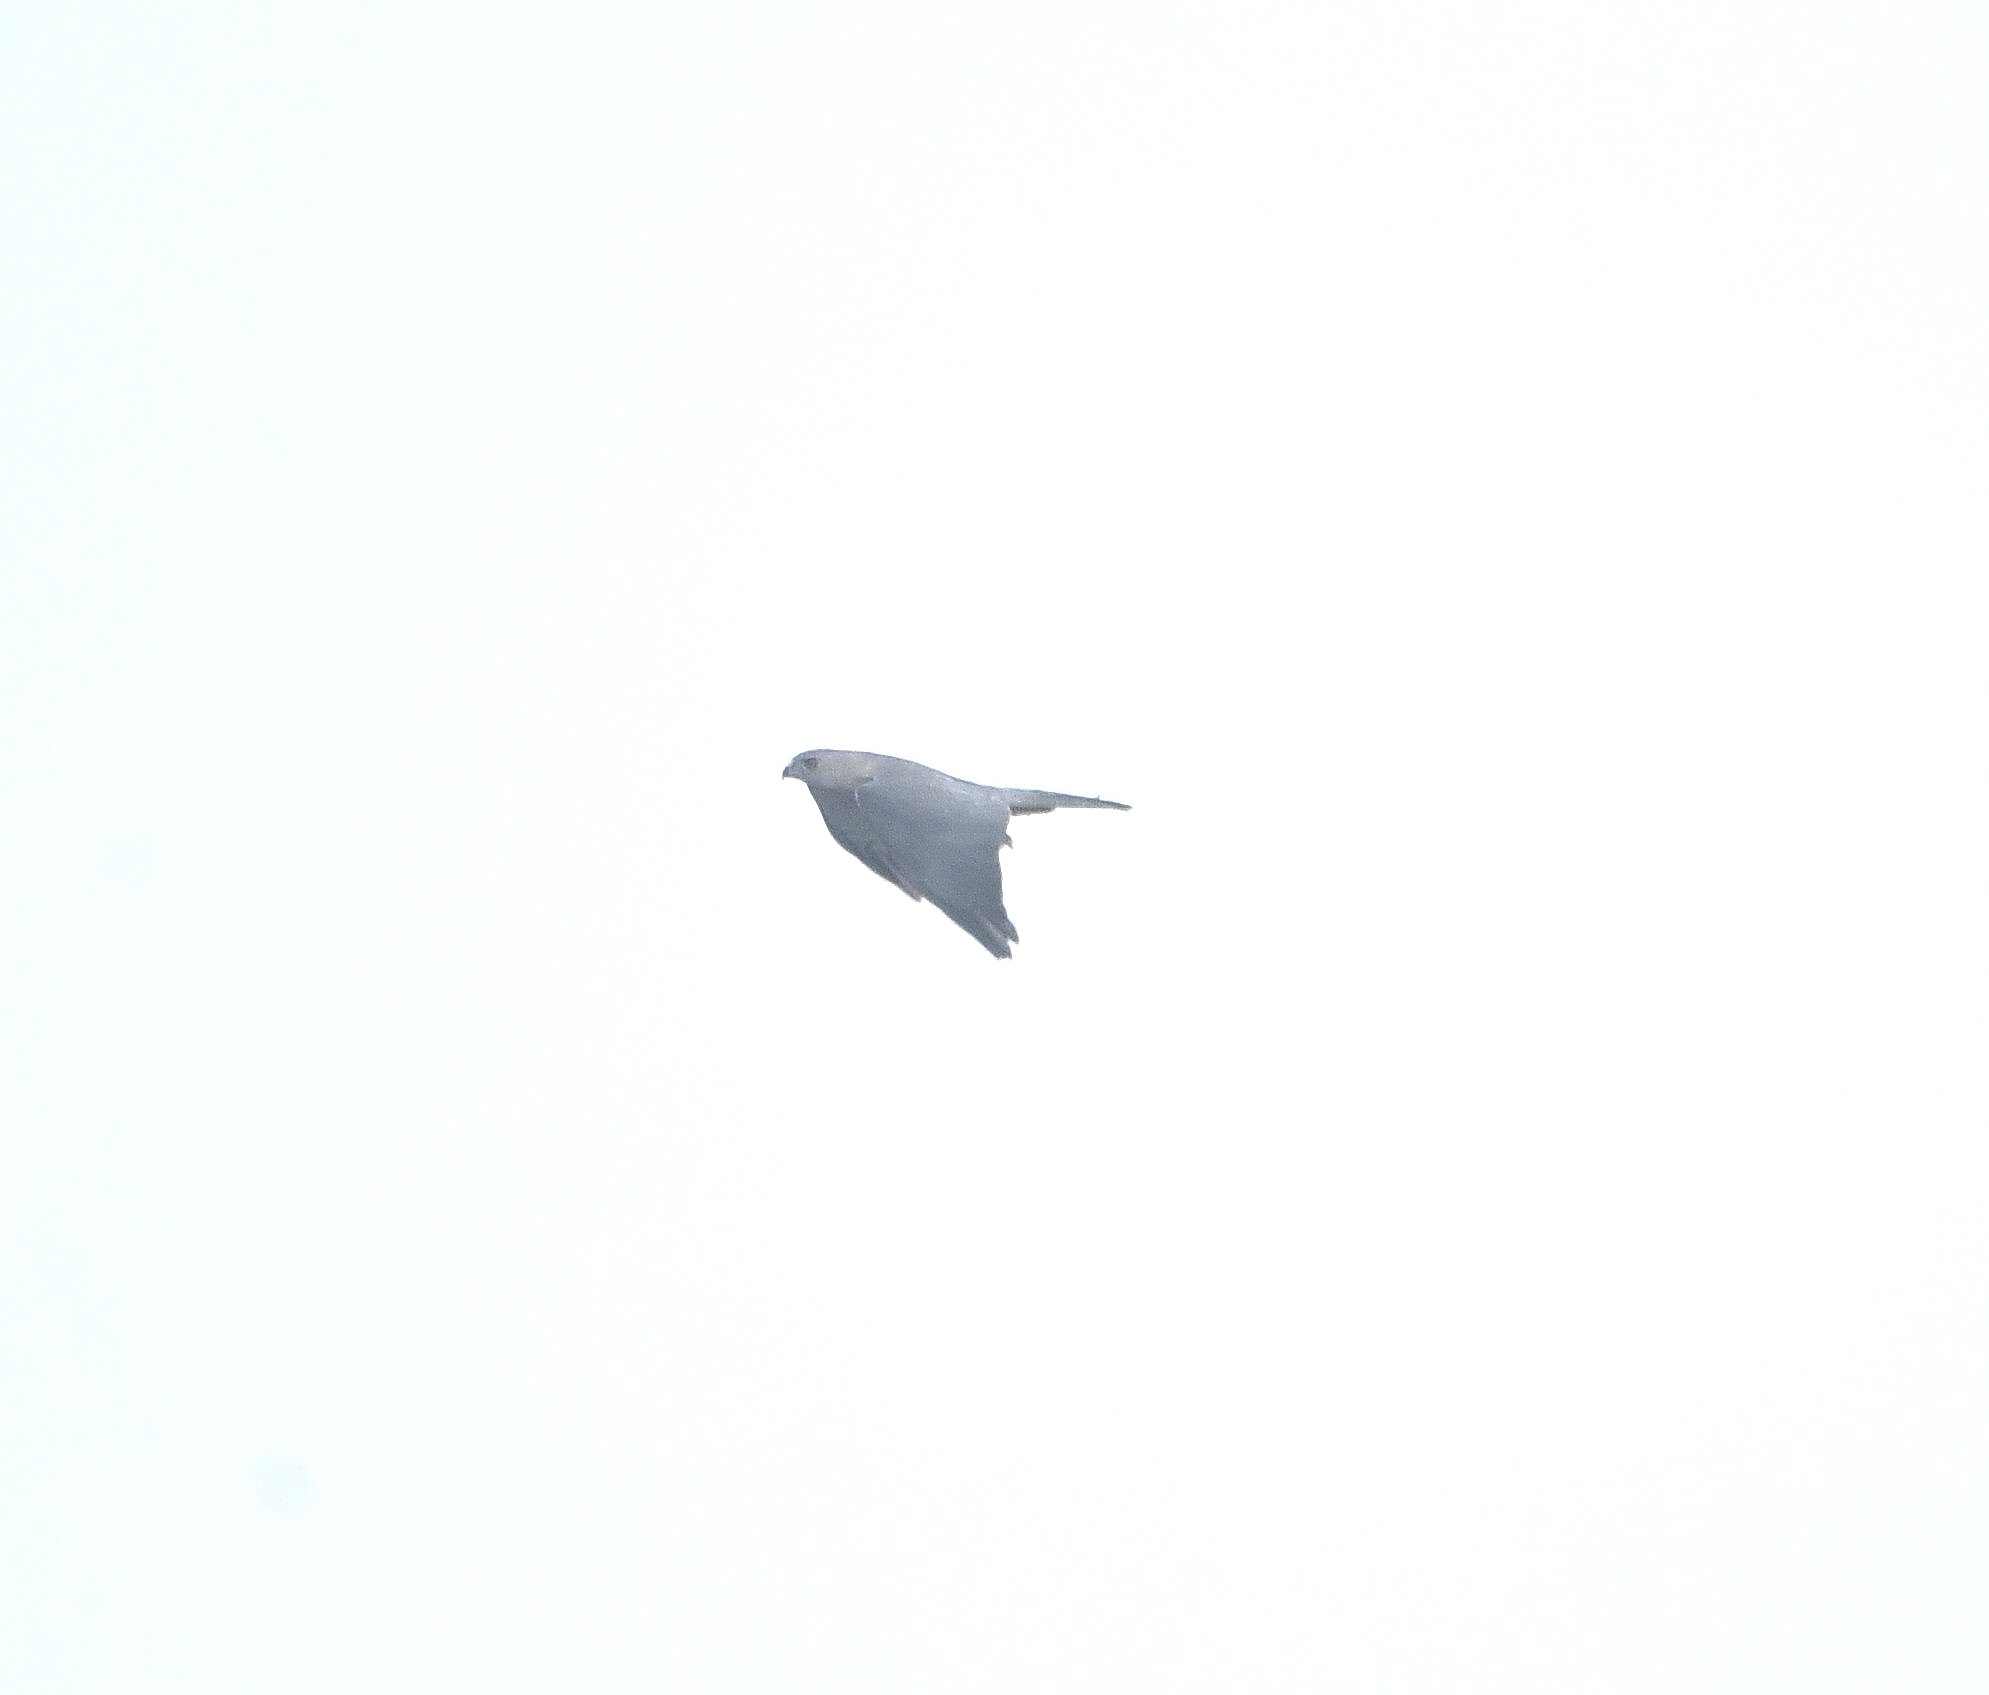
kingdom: Animalia
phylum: Chordata
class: Aves
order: Accipitriformes
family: Accipitridae
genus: Accipiter
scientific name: Accipiter badius
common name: Shikra
